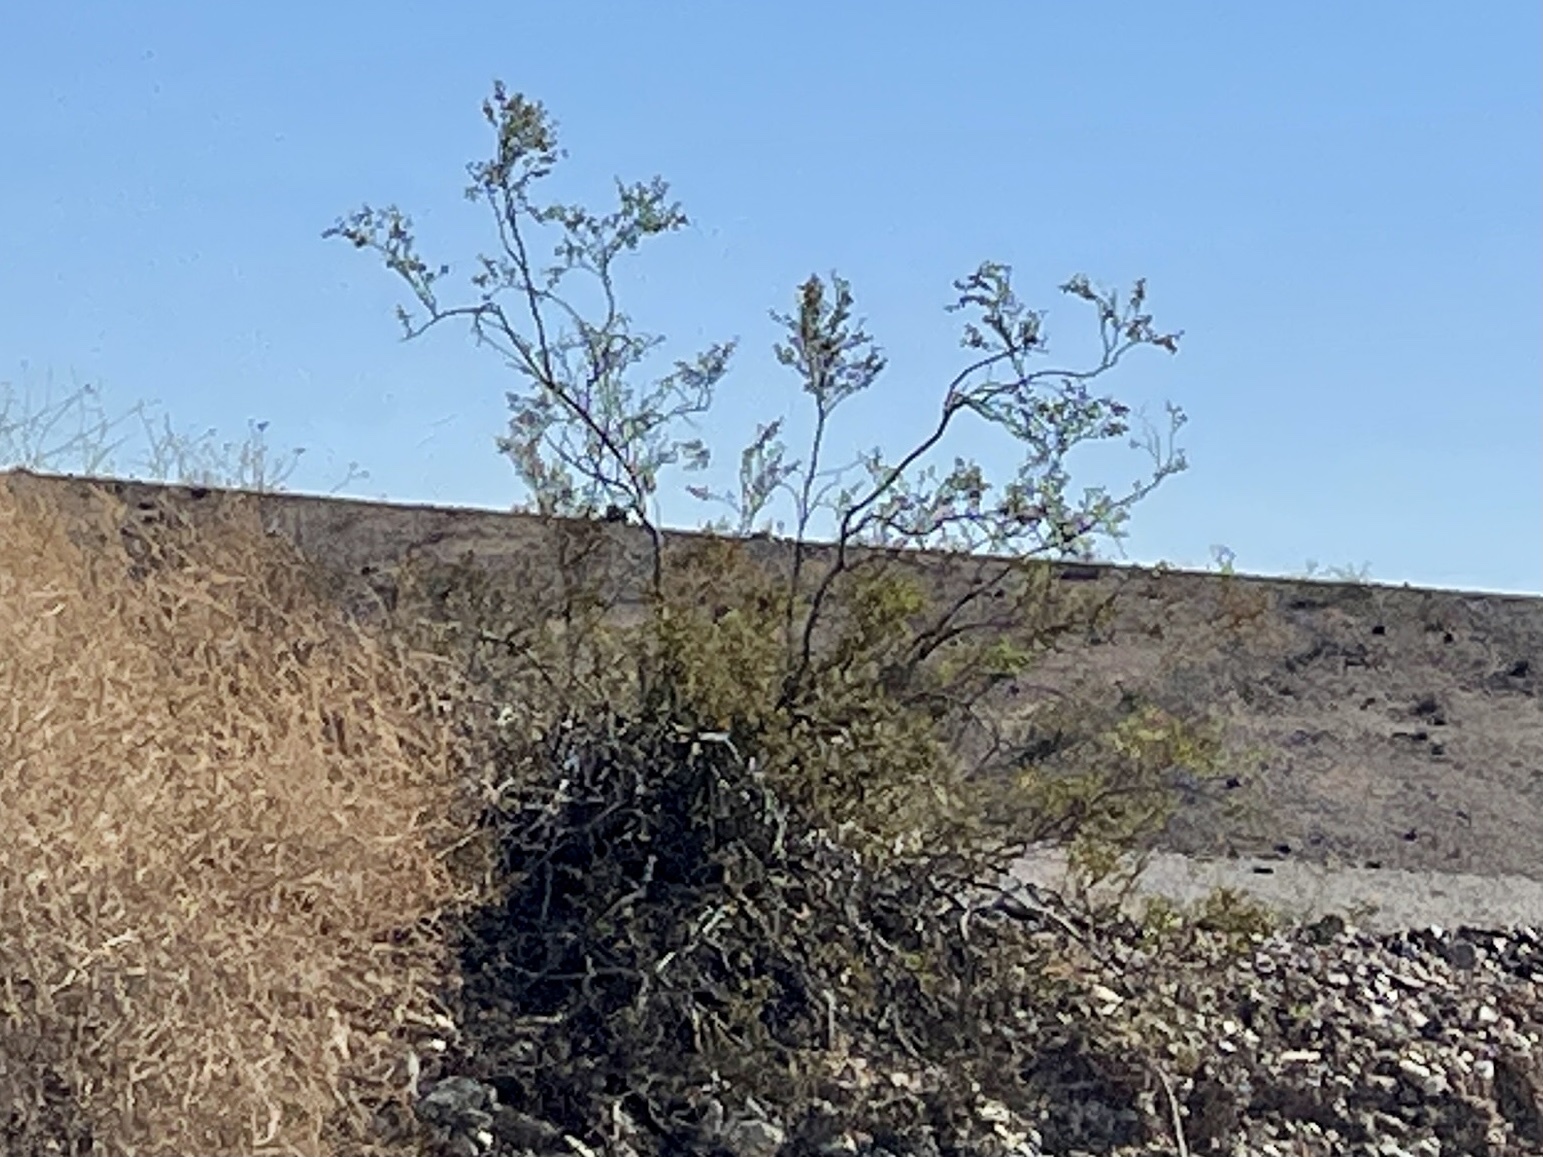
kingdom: Plantae
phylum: Tracheophyta
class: Magnoliopsida
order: Zygophyllales
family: Zygophyllaceae
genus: Larrea
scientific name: Larrea tridentata
